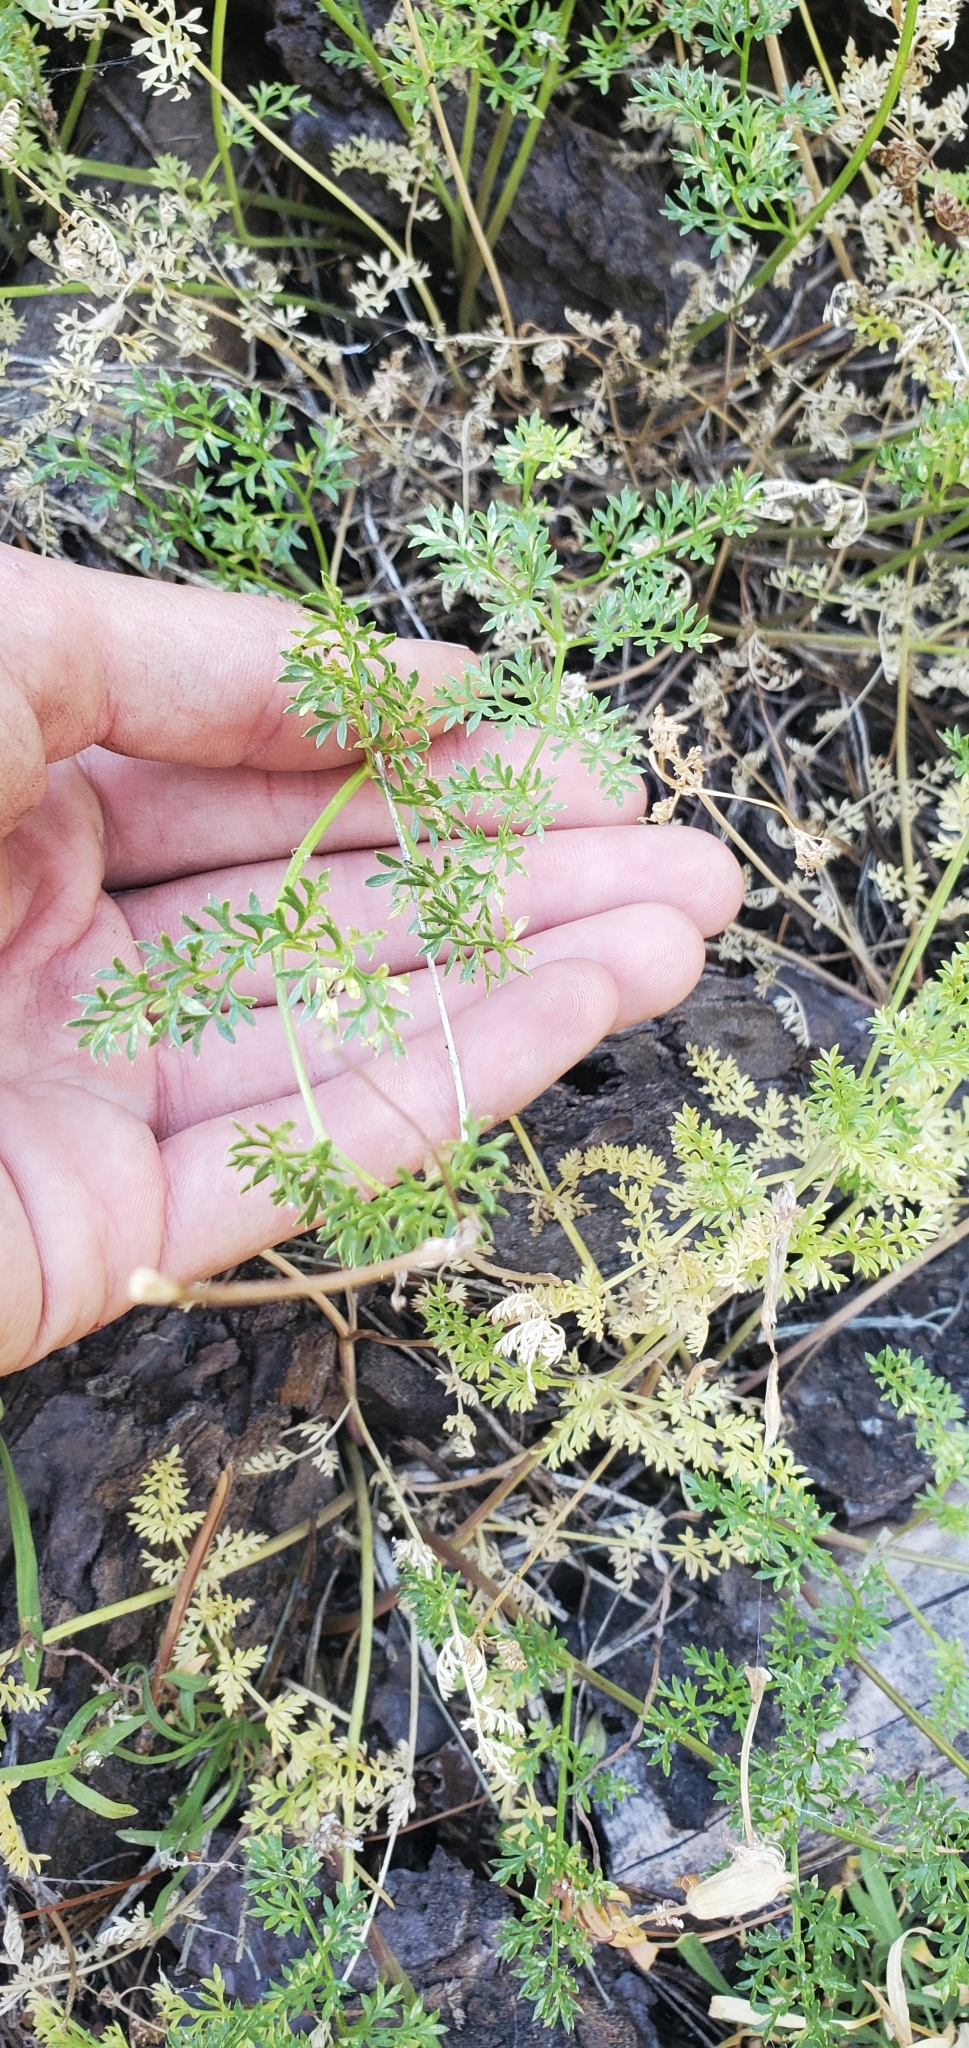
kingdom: Plantae
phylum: Tracheophyta
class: Magnoliopsida
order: Apiales
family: Apiaceae
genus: Pteryxia
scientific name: Pteryxia terebinthina
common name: Turpentine wavewing
